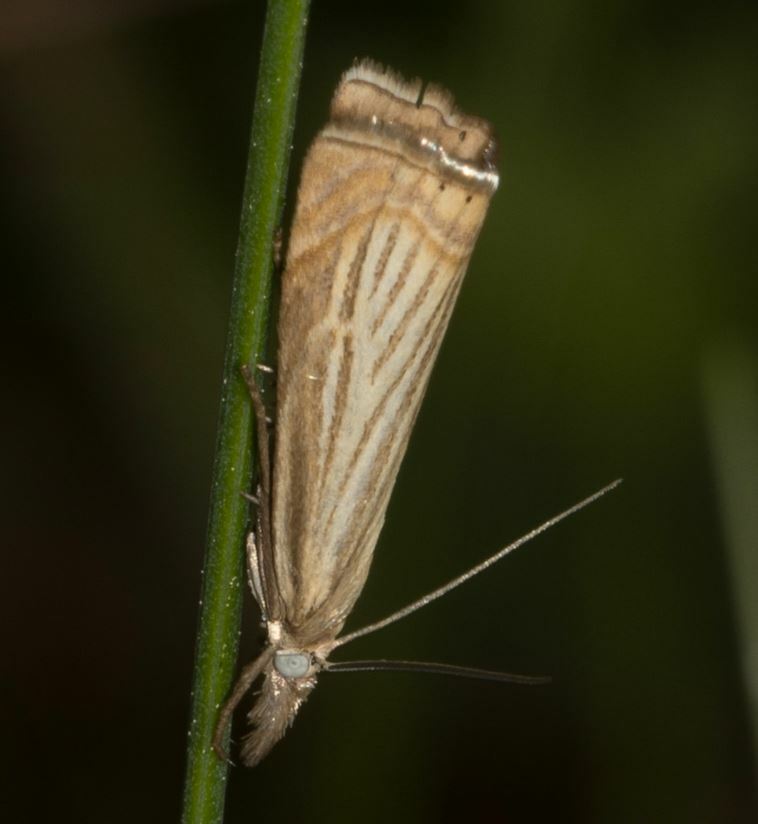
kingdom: Animalia
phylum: Arthropoda
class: Insecta
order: Lepidoptera
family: Crambidae
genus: Chrysoteuchia
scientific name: Chrysoteuchia culmella
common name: Garden grass-veneer
